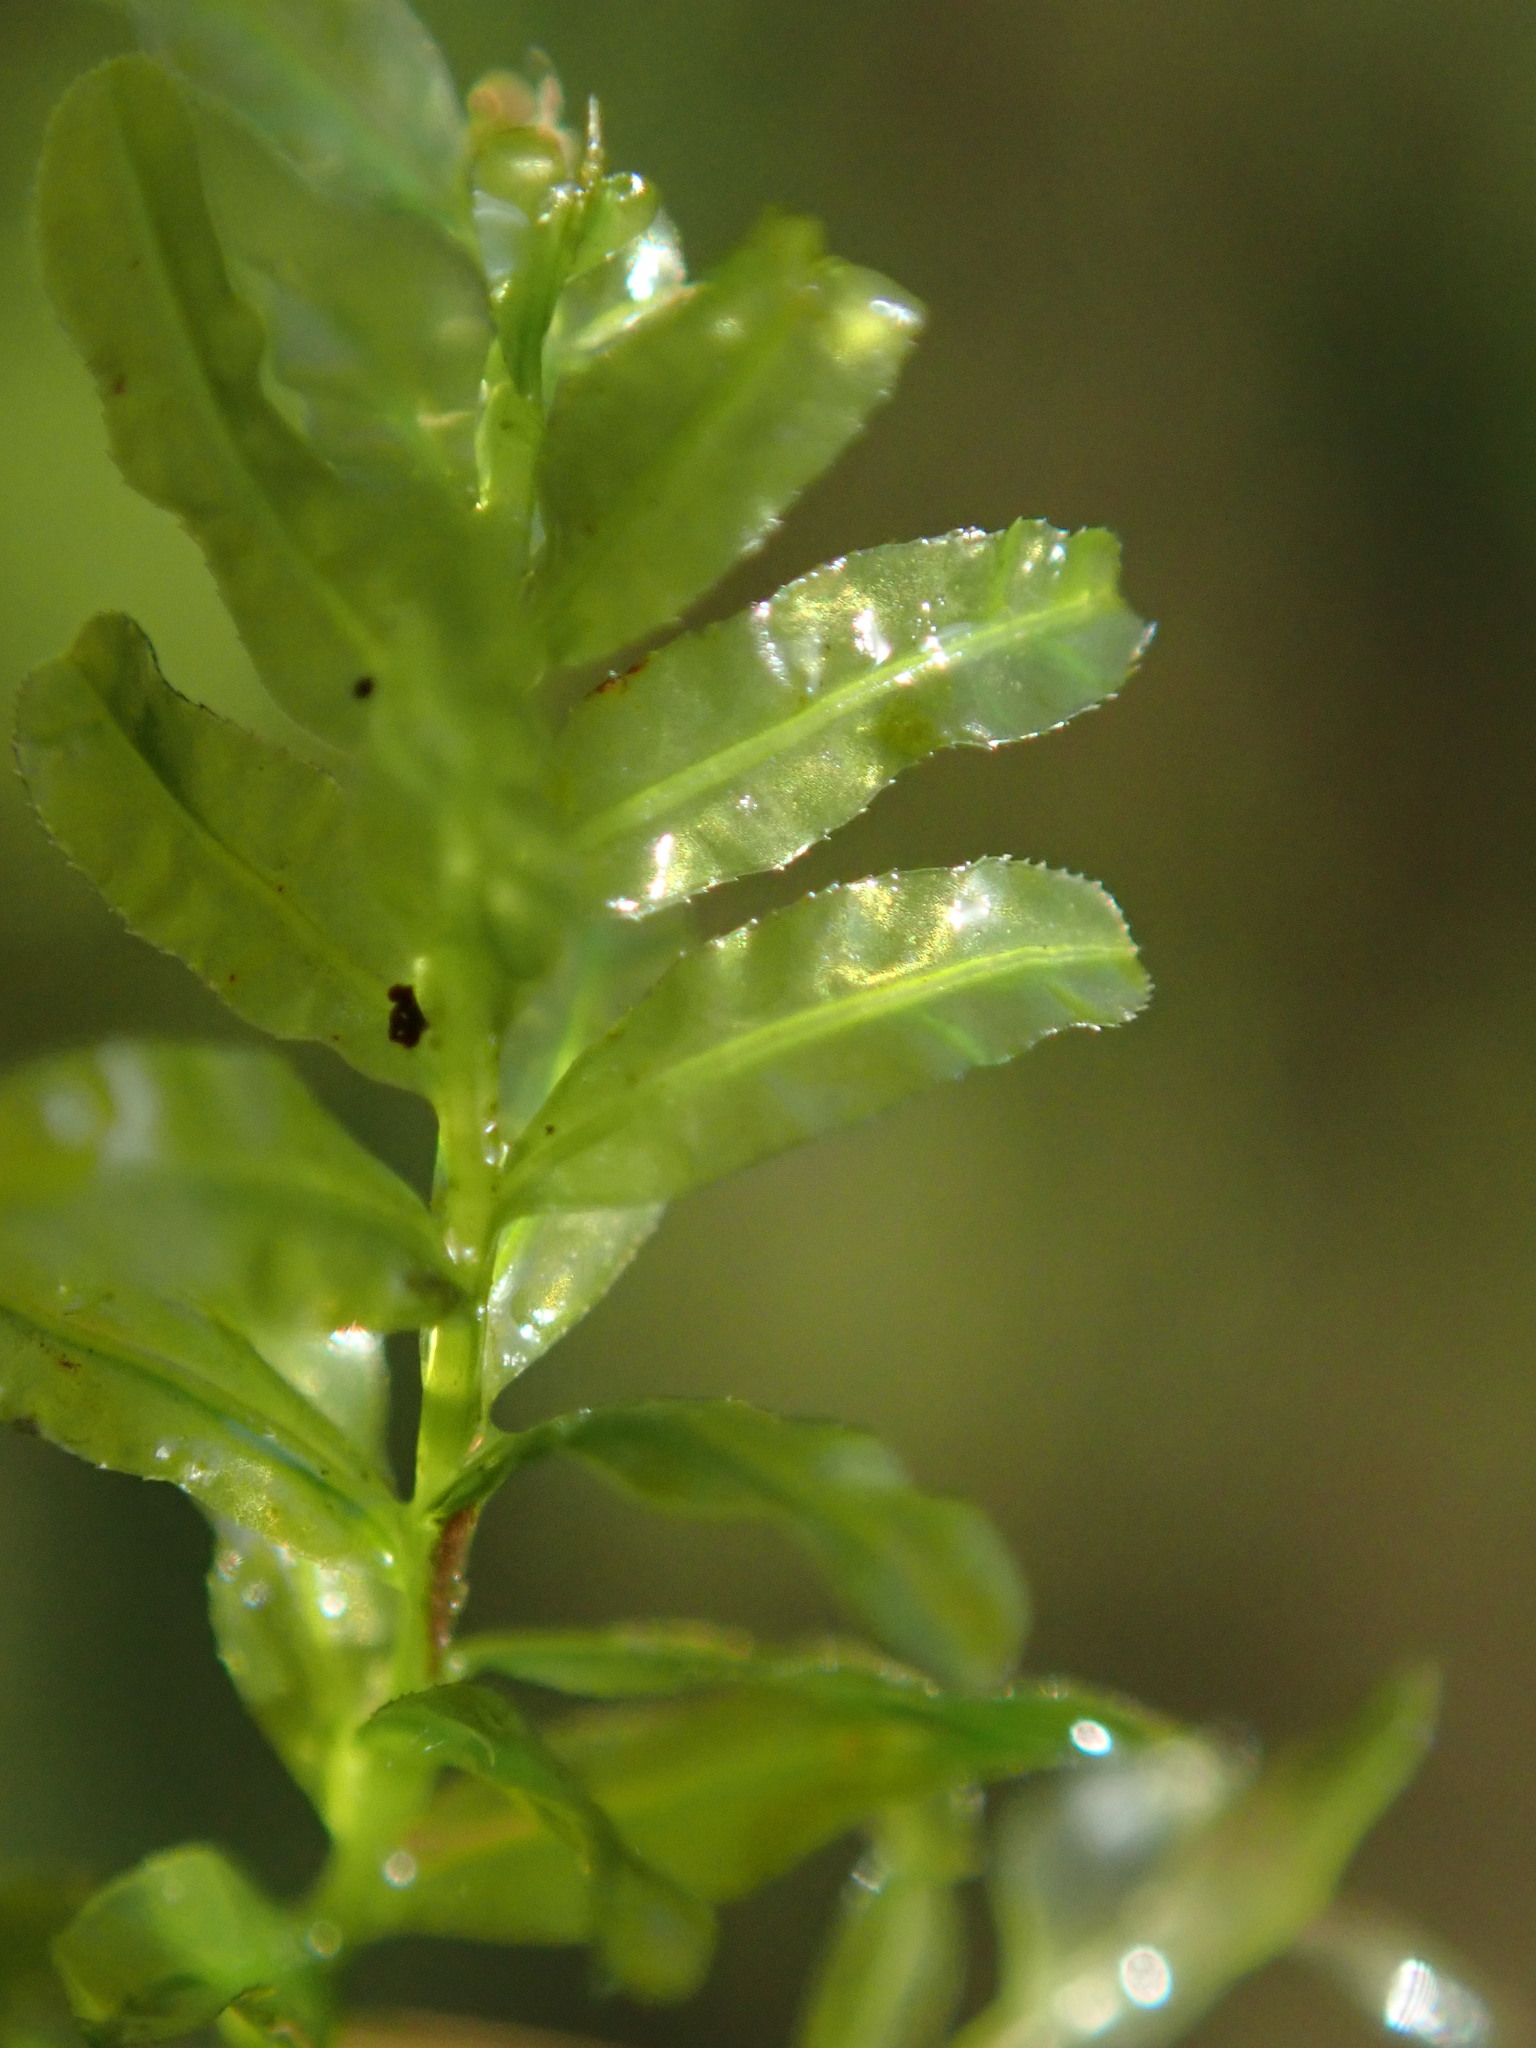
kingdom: Plantae
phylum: Bryophyta
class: Bryopsida
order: Bryales
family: Mniaceae
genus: Plagiomnium
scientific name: Plagiomnium undulatum
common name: Hart's-tongue thyme-moss
